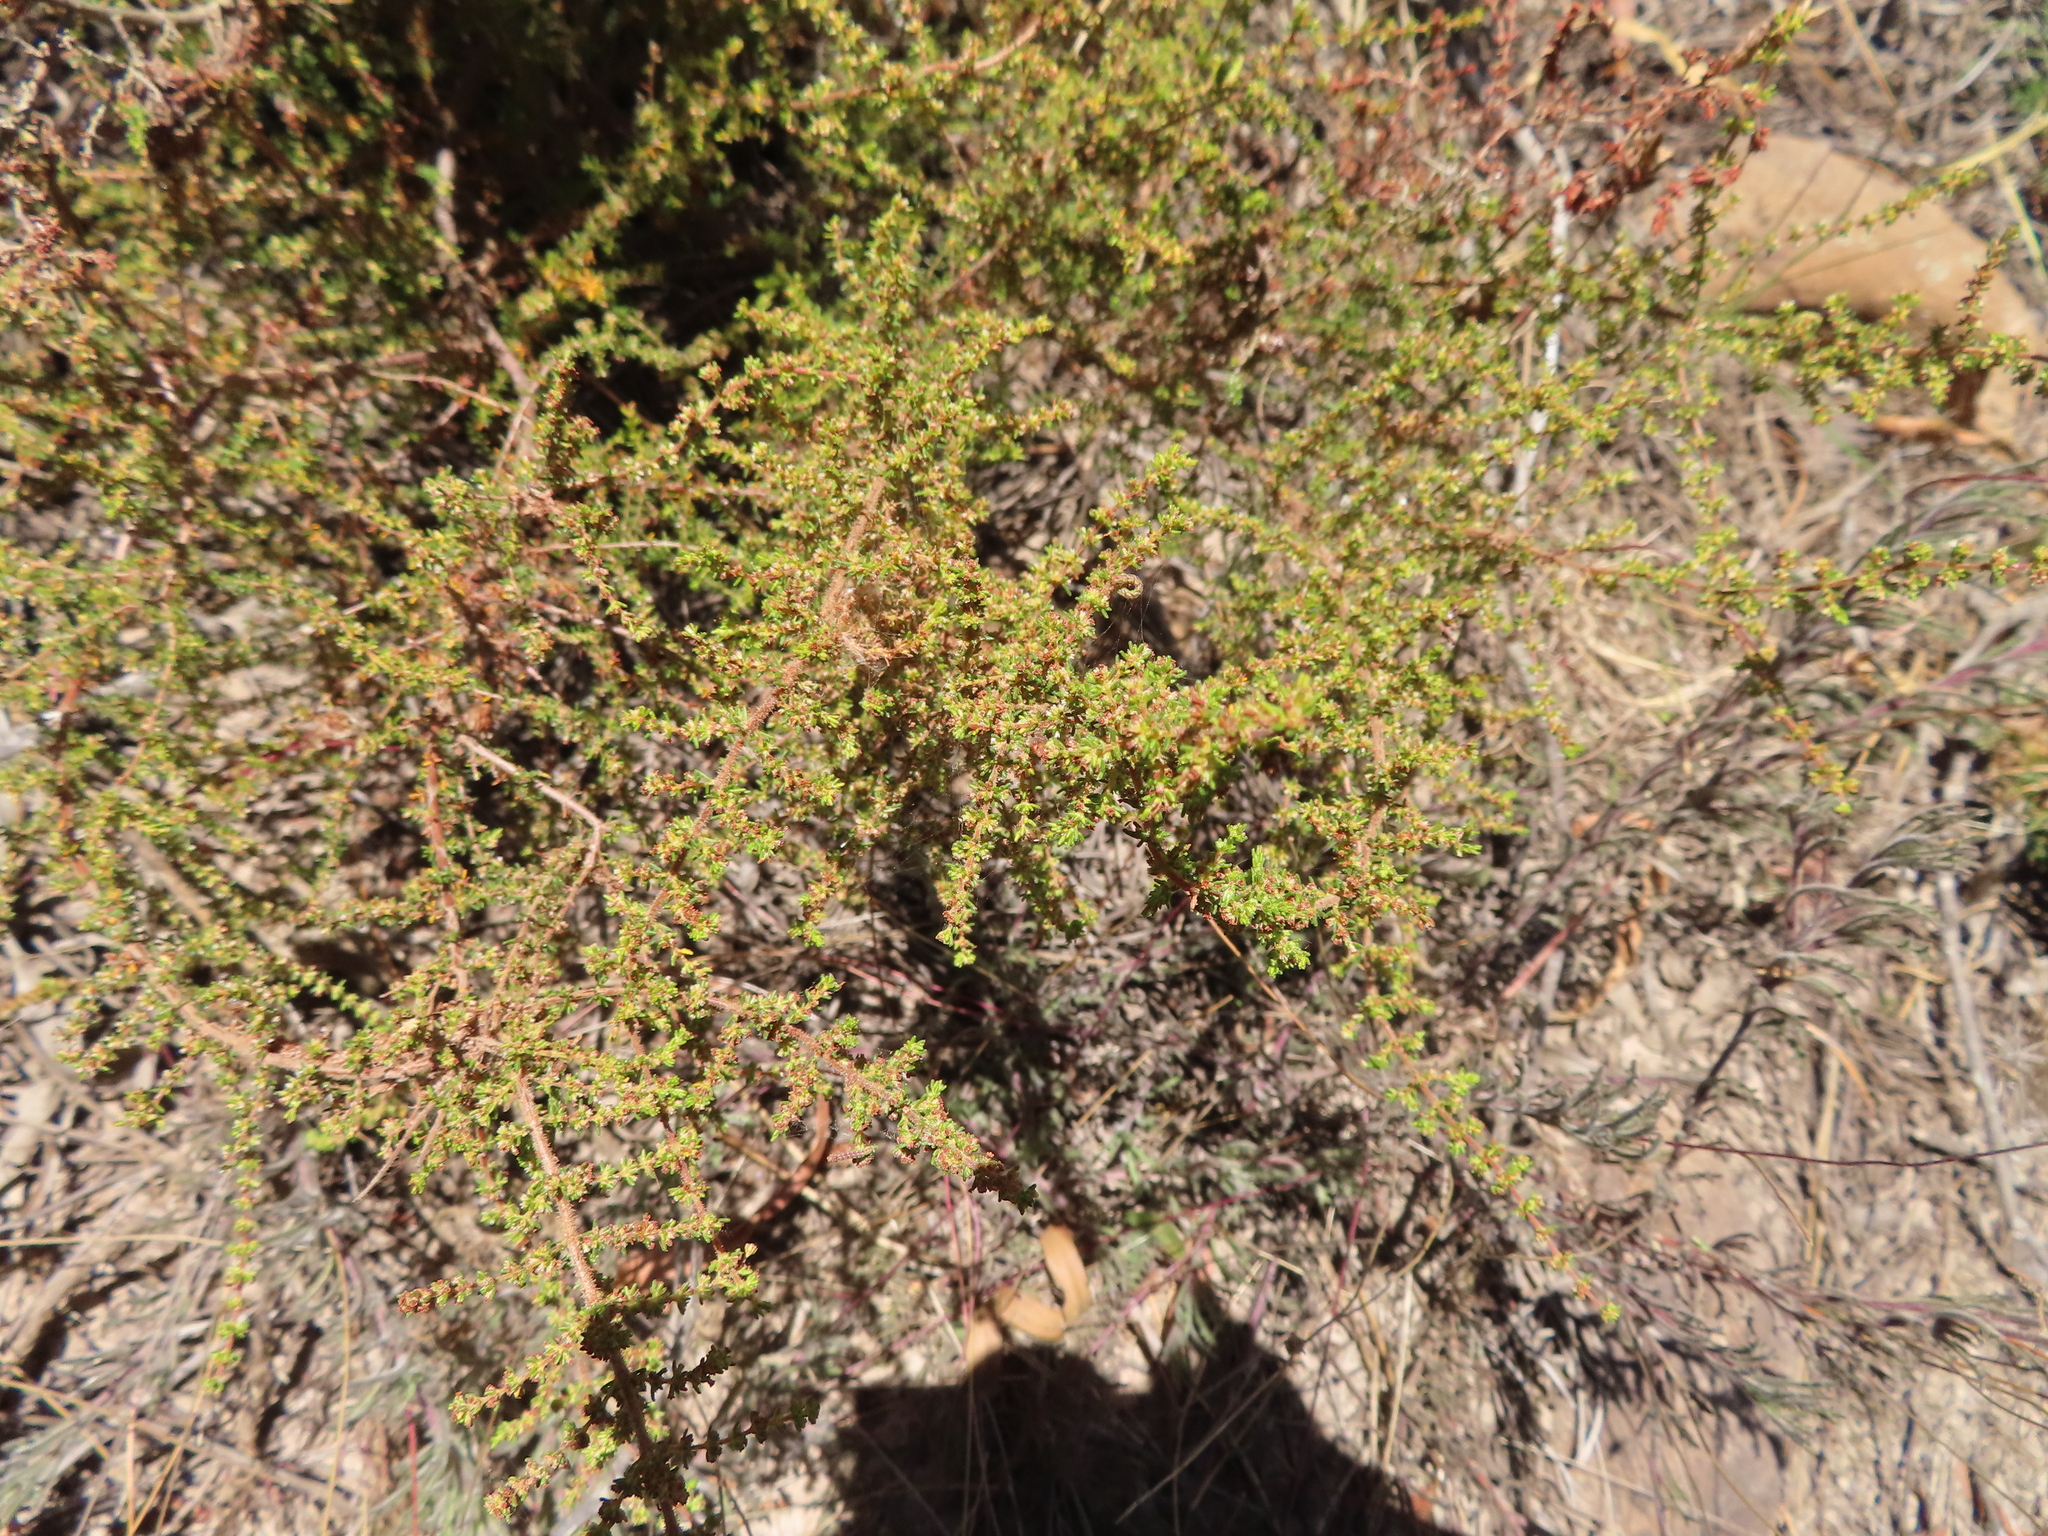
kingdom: Plantae
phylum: Tracheophyta
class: Magnoliopsida
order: Ericales
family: Ericaceae
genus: Erica
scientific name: Erica muscosa
